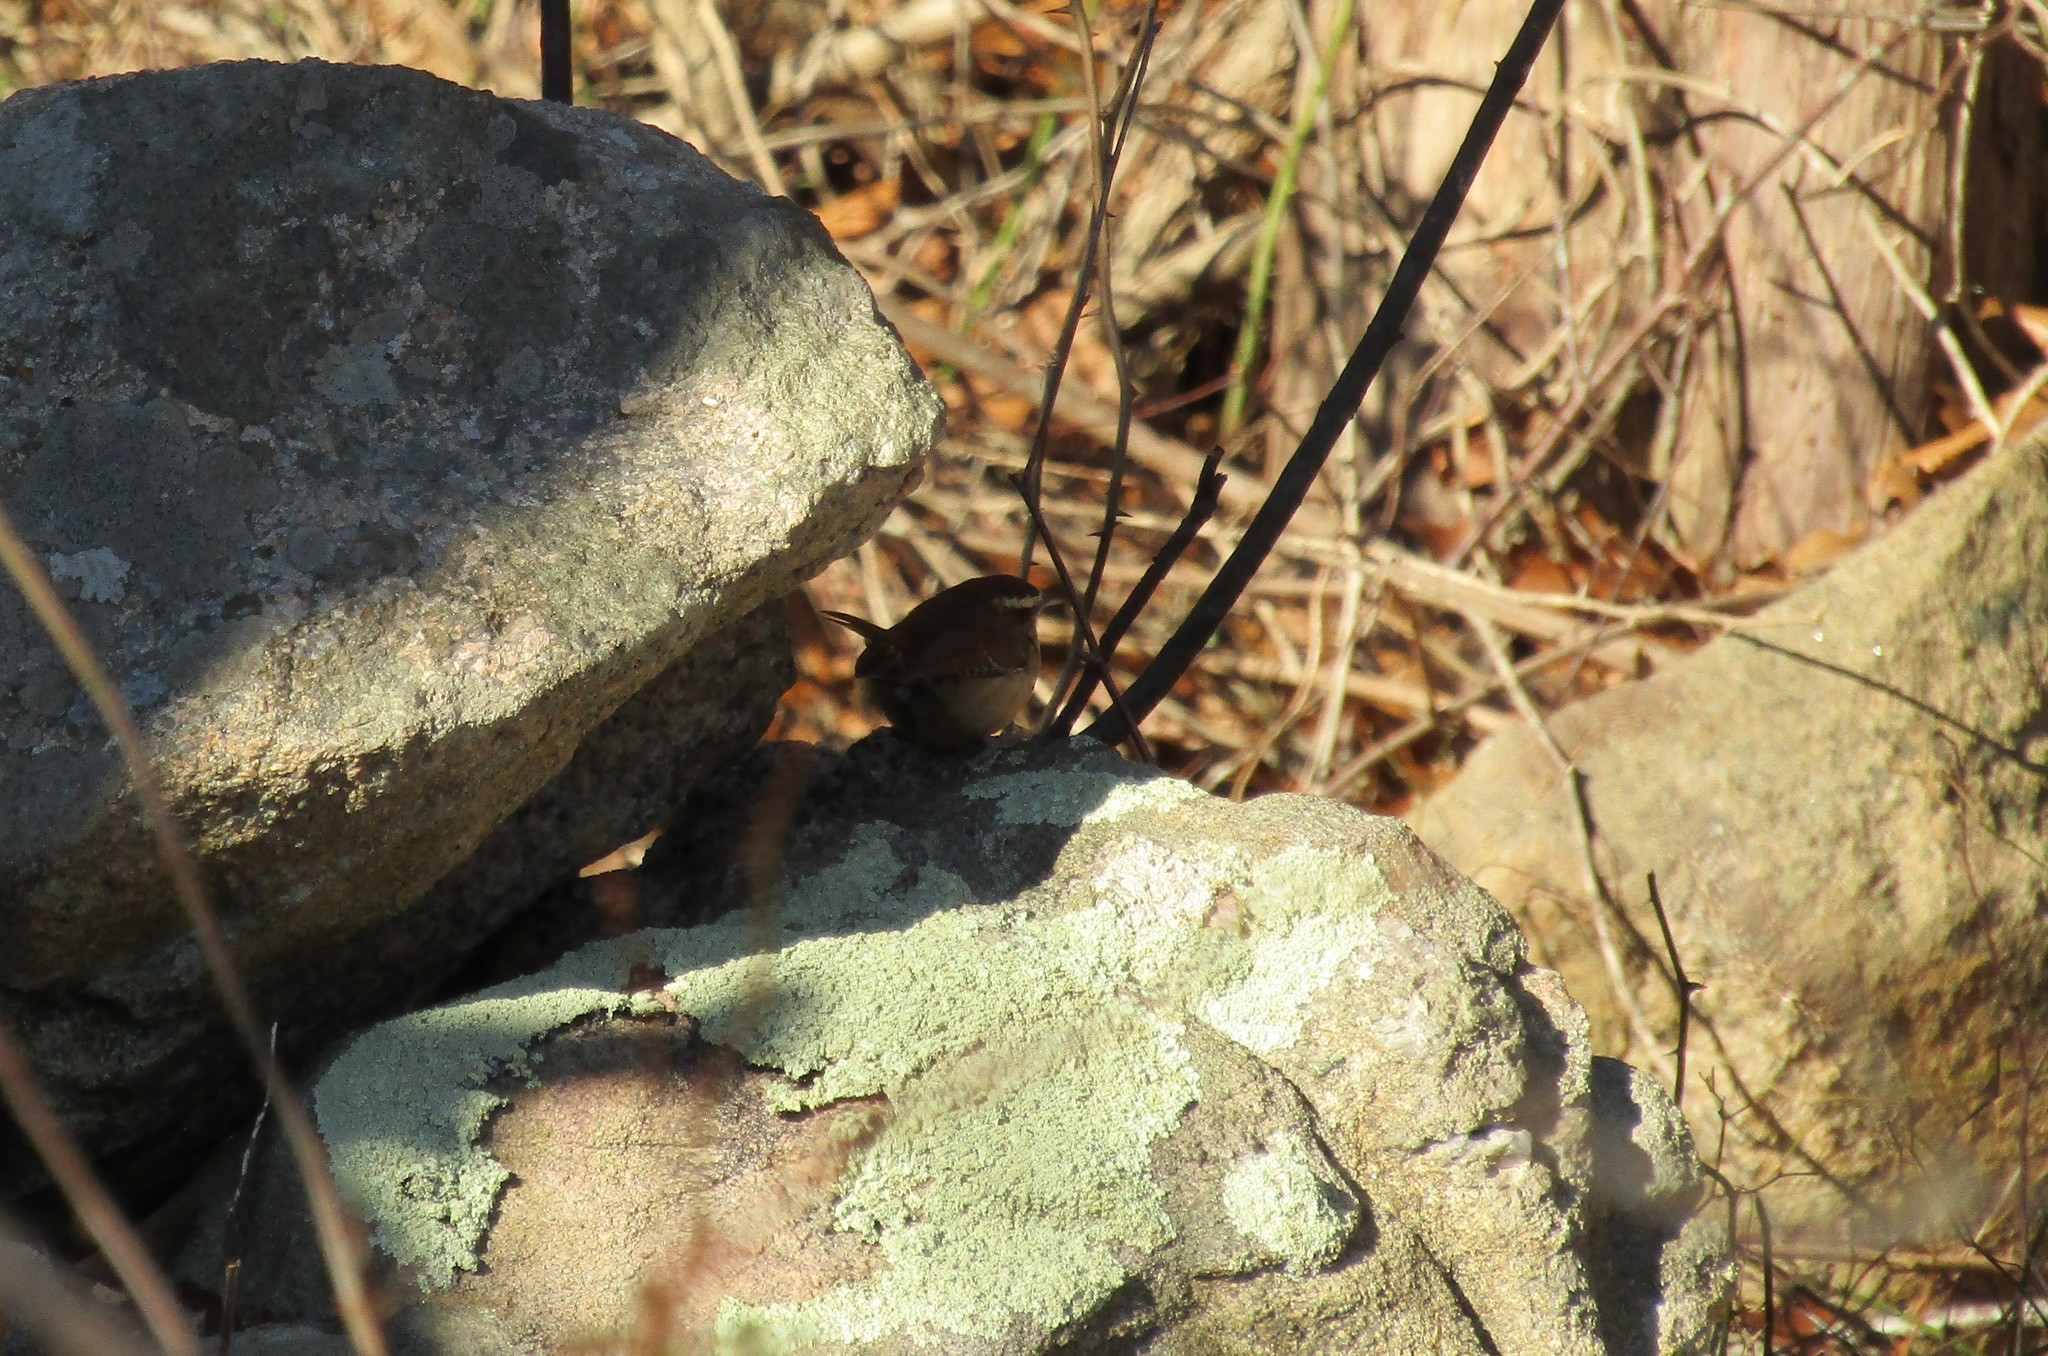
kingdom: Animalia
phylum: Chordata
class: Aves
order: Passeriformes
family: Troglodytidae
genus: Thryothorus
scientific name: Thryothorus ludovicianus
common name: Carolina wren
